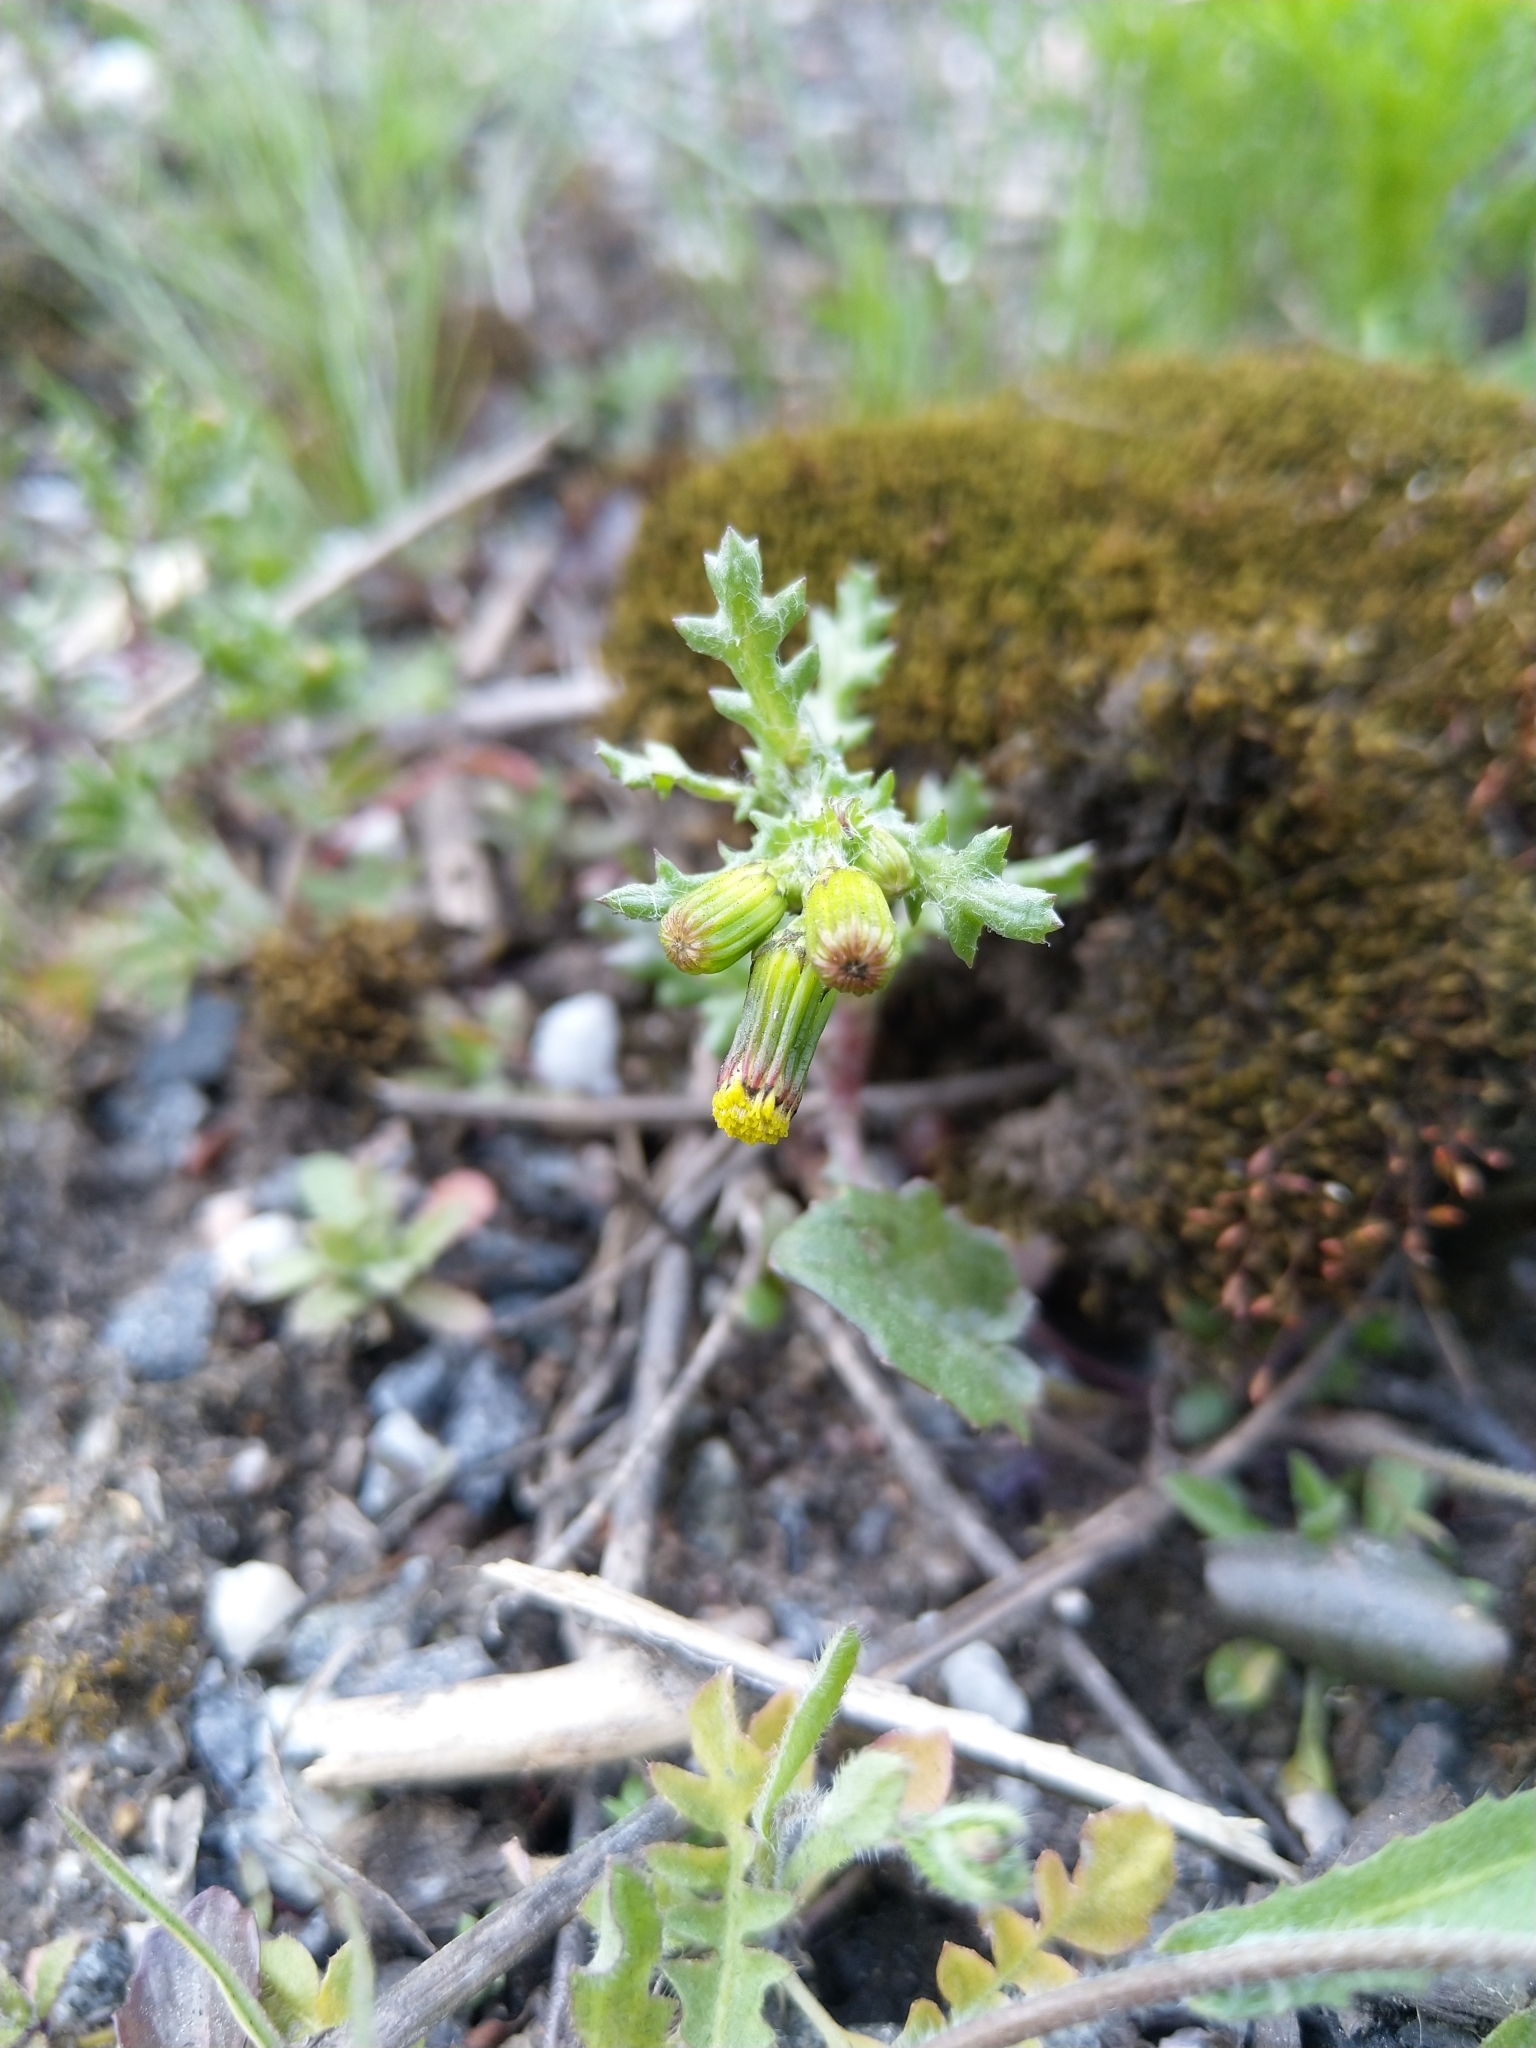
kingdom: Plantae
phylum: Tracheophyta
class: Magnoliopsida
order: Asterales
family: Asteraceae
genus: Senecio
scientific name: Senecio vulgaris
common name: Old-man-in-the-spring
